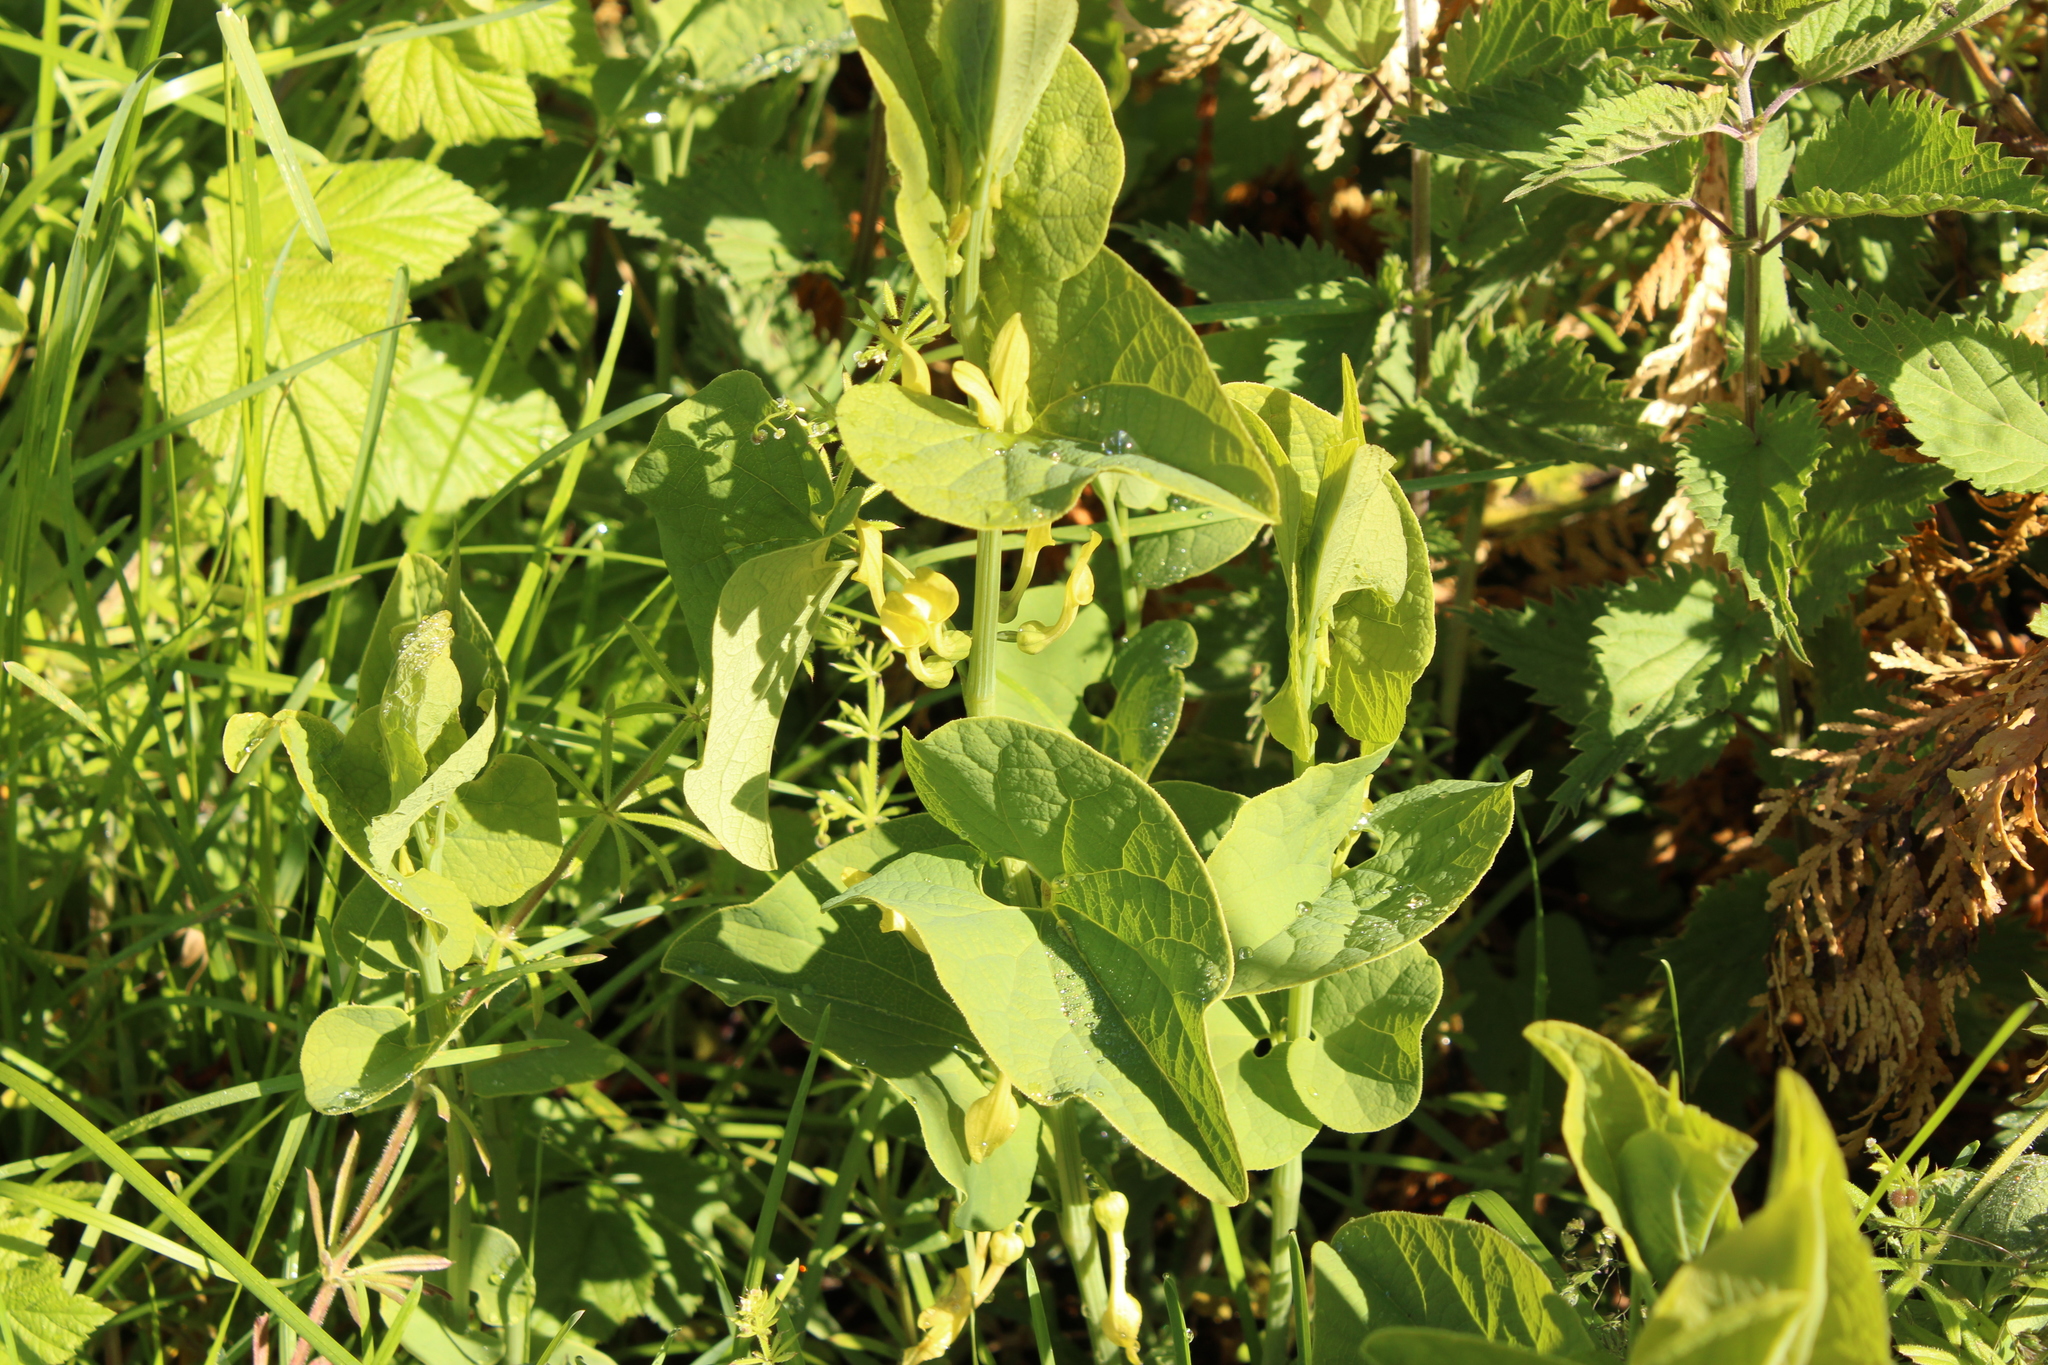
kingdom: Plantae
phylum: Tracheophyta
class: Magnoliopsida
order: Piperales
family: Aristolochiaceae
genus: Aristolochia
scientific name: Aristolochia clematitis
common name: Birthwort
